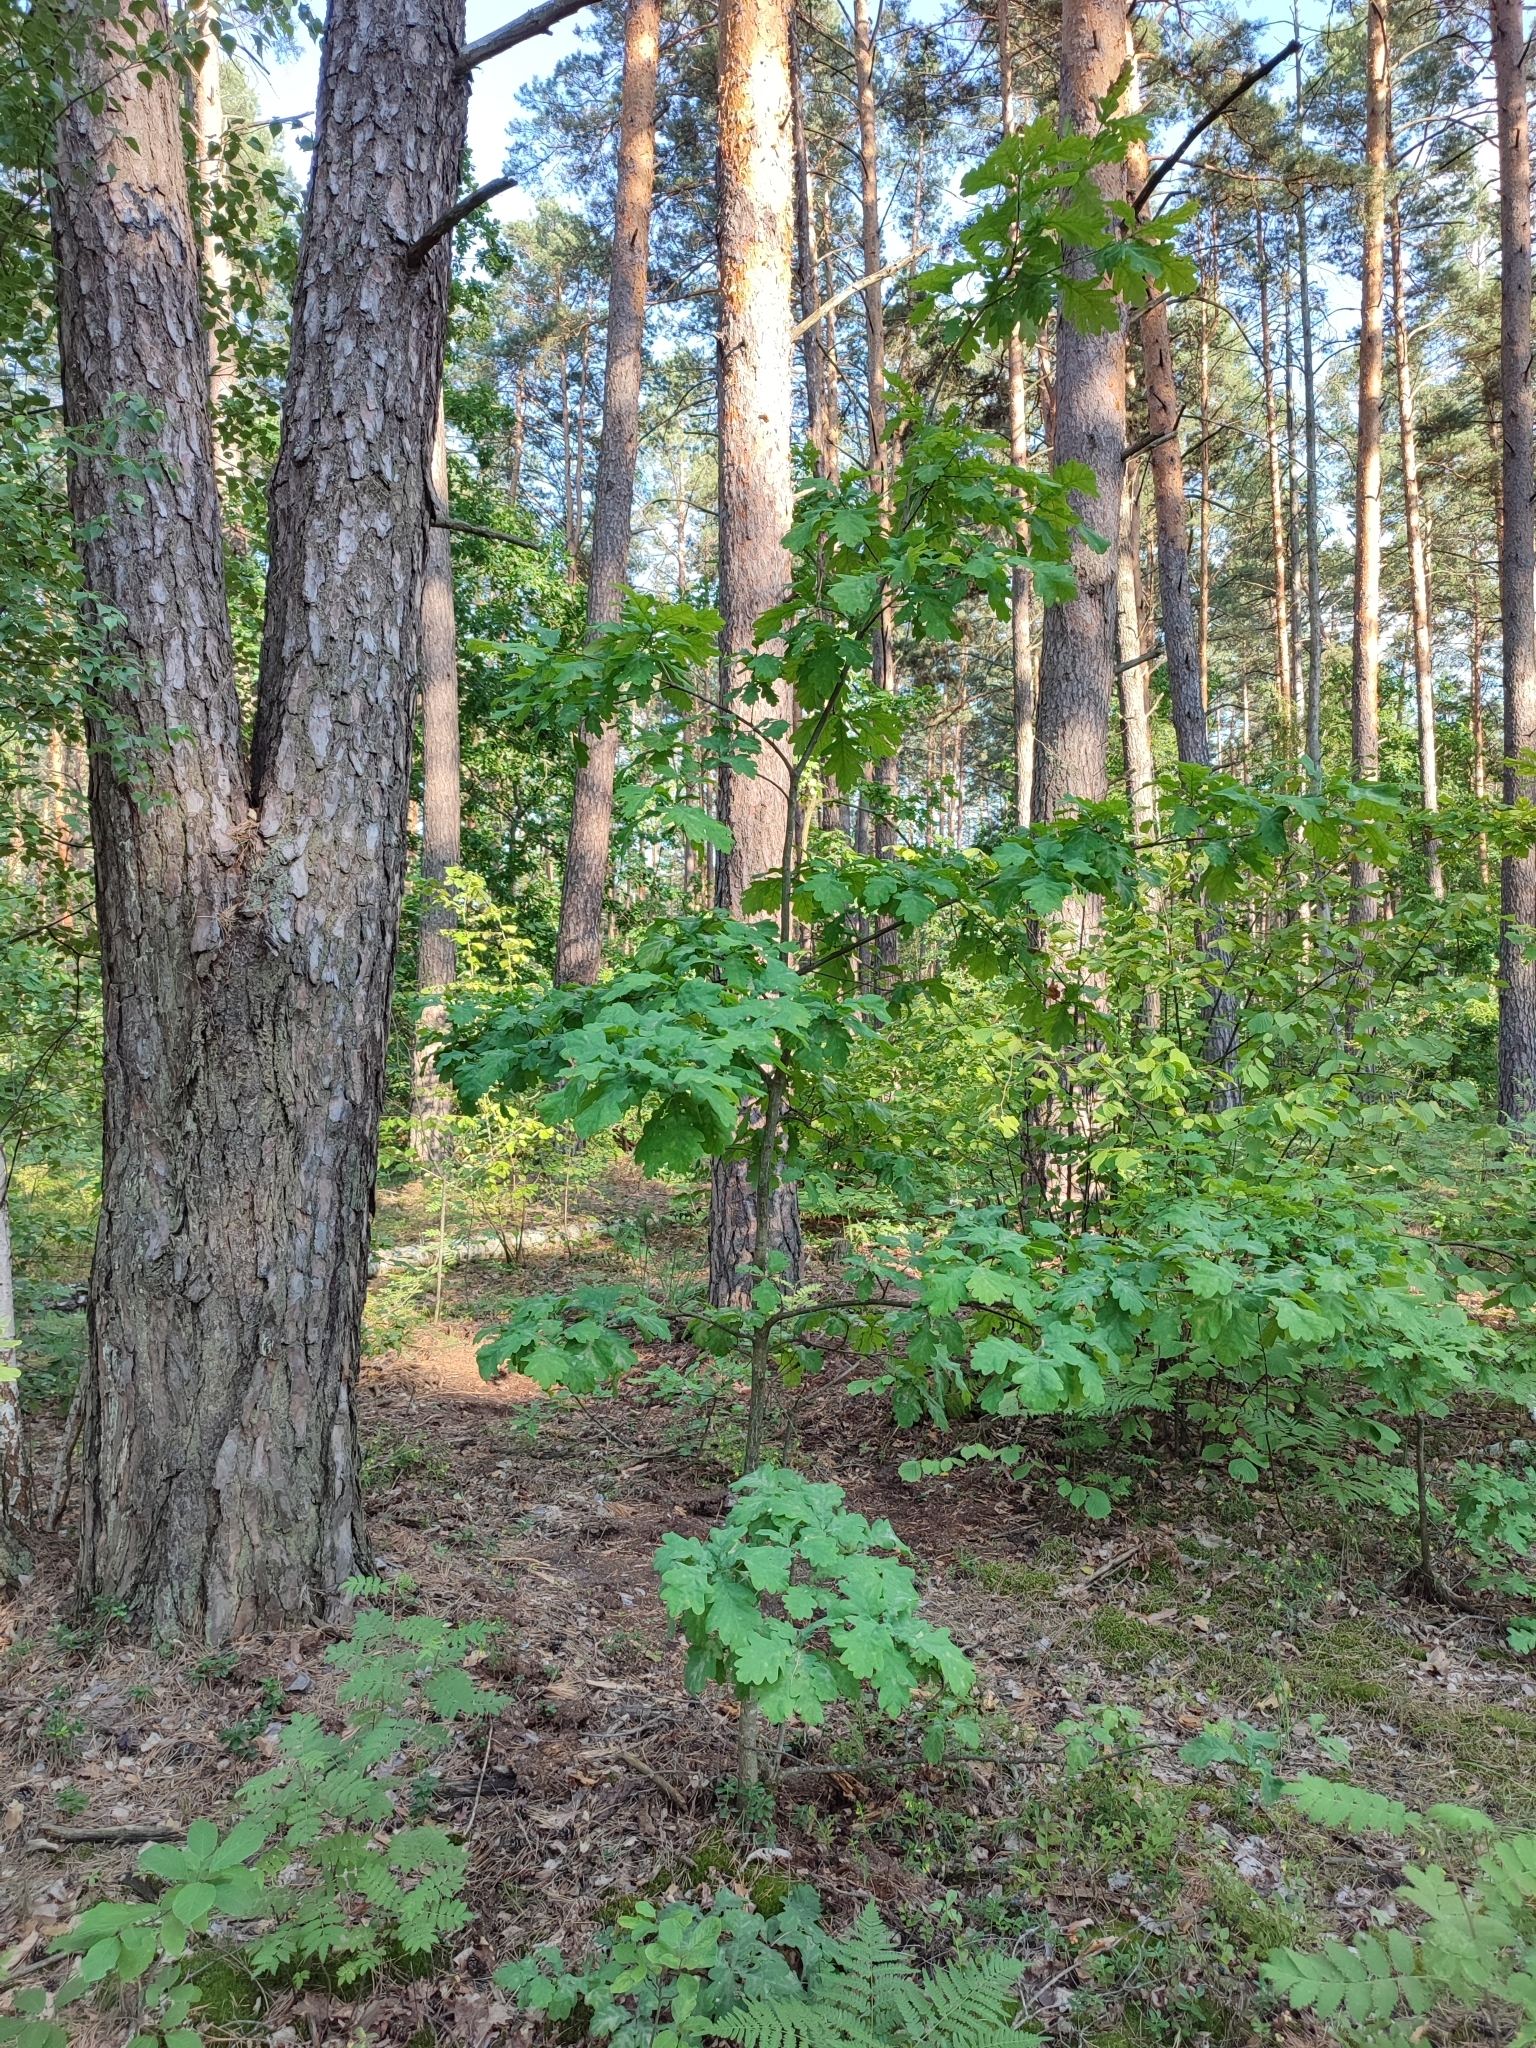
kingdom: Plantae
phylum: Tracheophyta
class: Magnoliopsida
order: Fagales
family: Fagaceae
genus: Quercus
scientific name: Quercus robur
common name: Pedunculate oak
